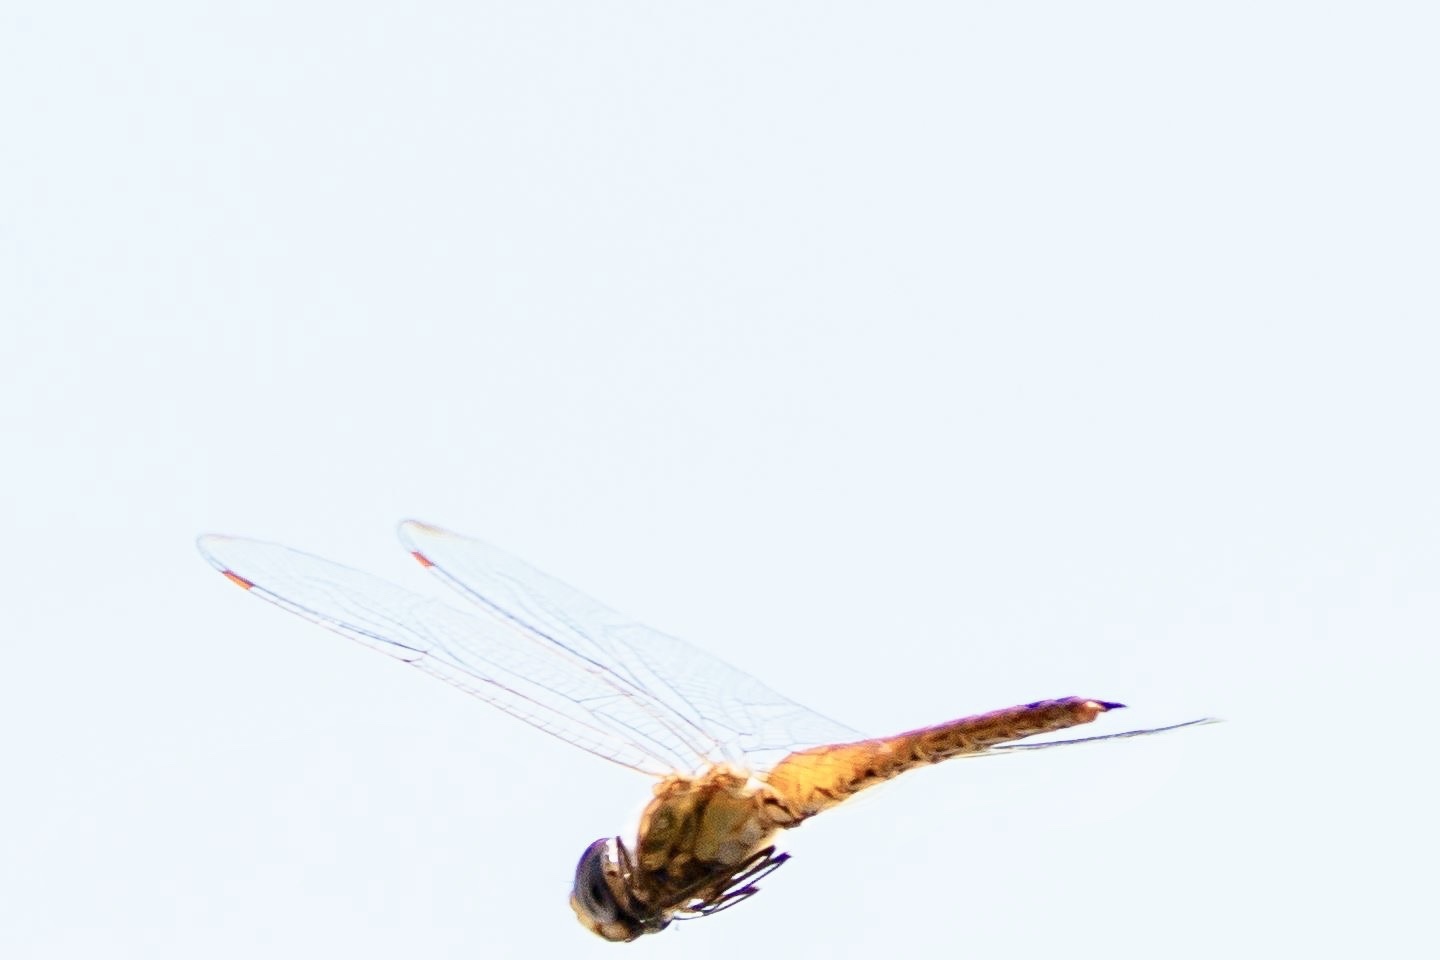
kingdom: Animalia
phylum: Arthropoda
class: Insecta
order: Odonata
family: Libellulidae
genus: Pantala
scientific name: Pantala flavescens
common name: Wandering glider
